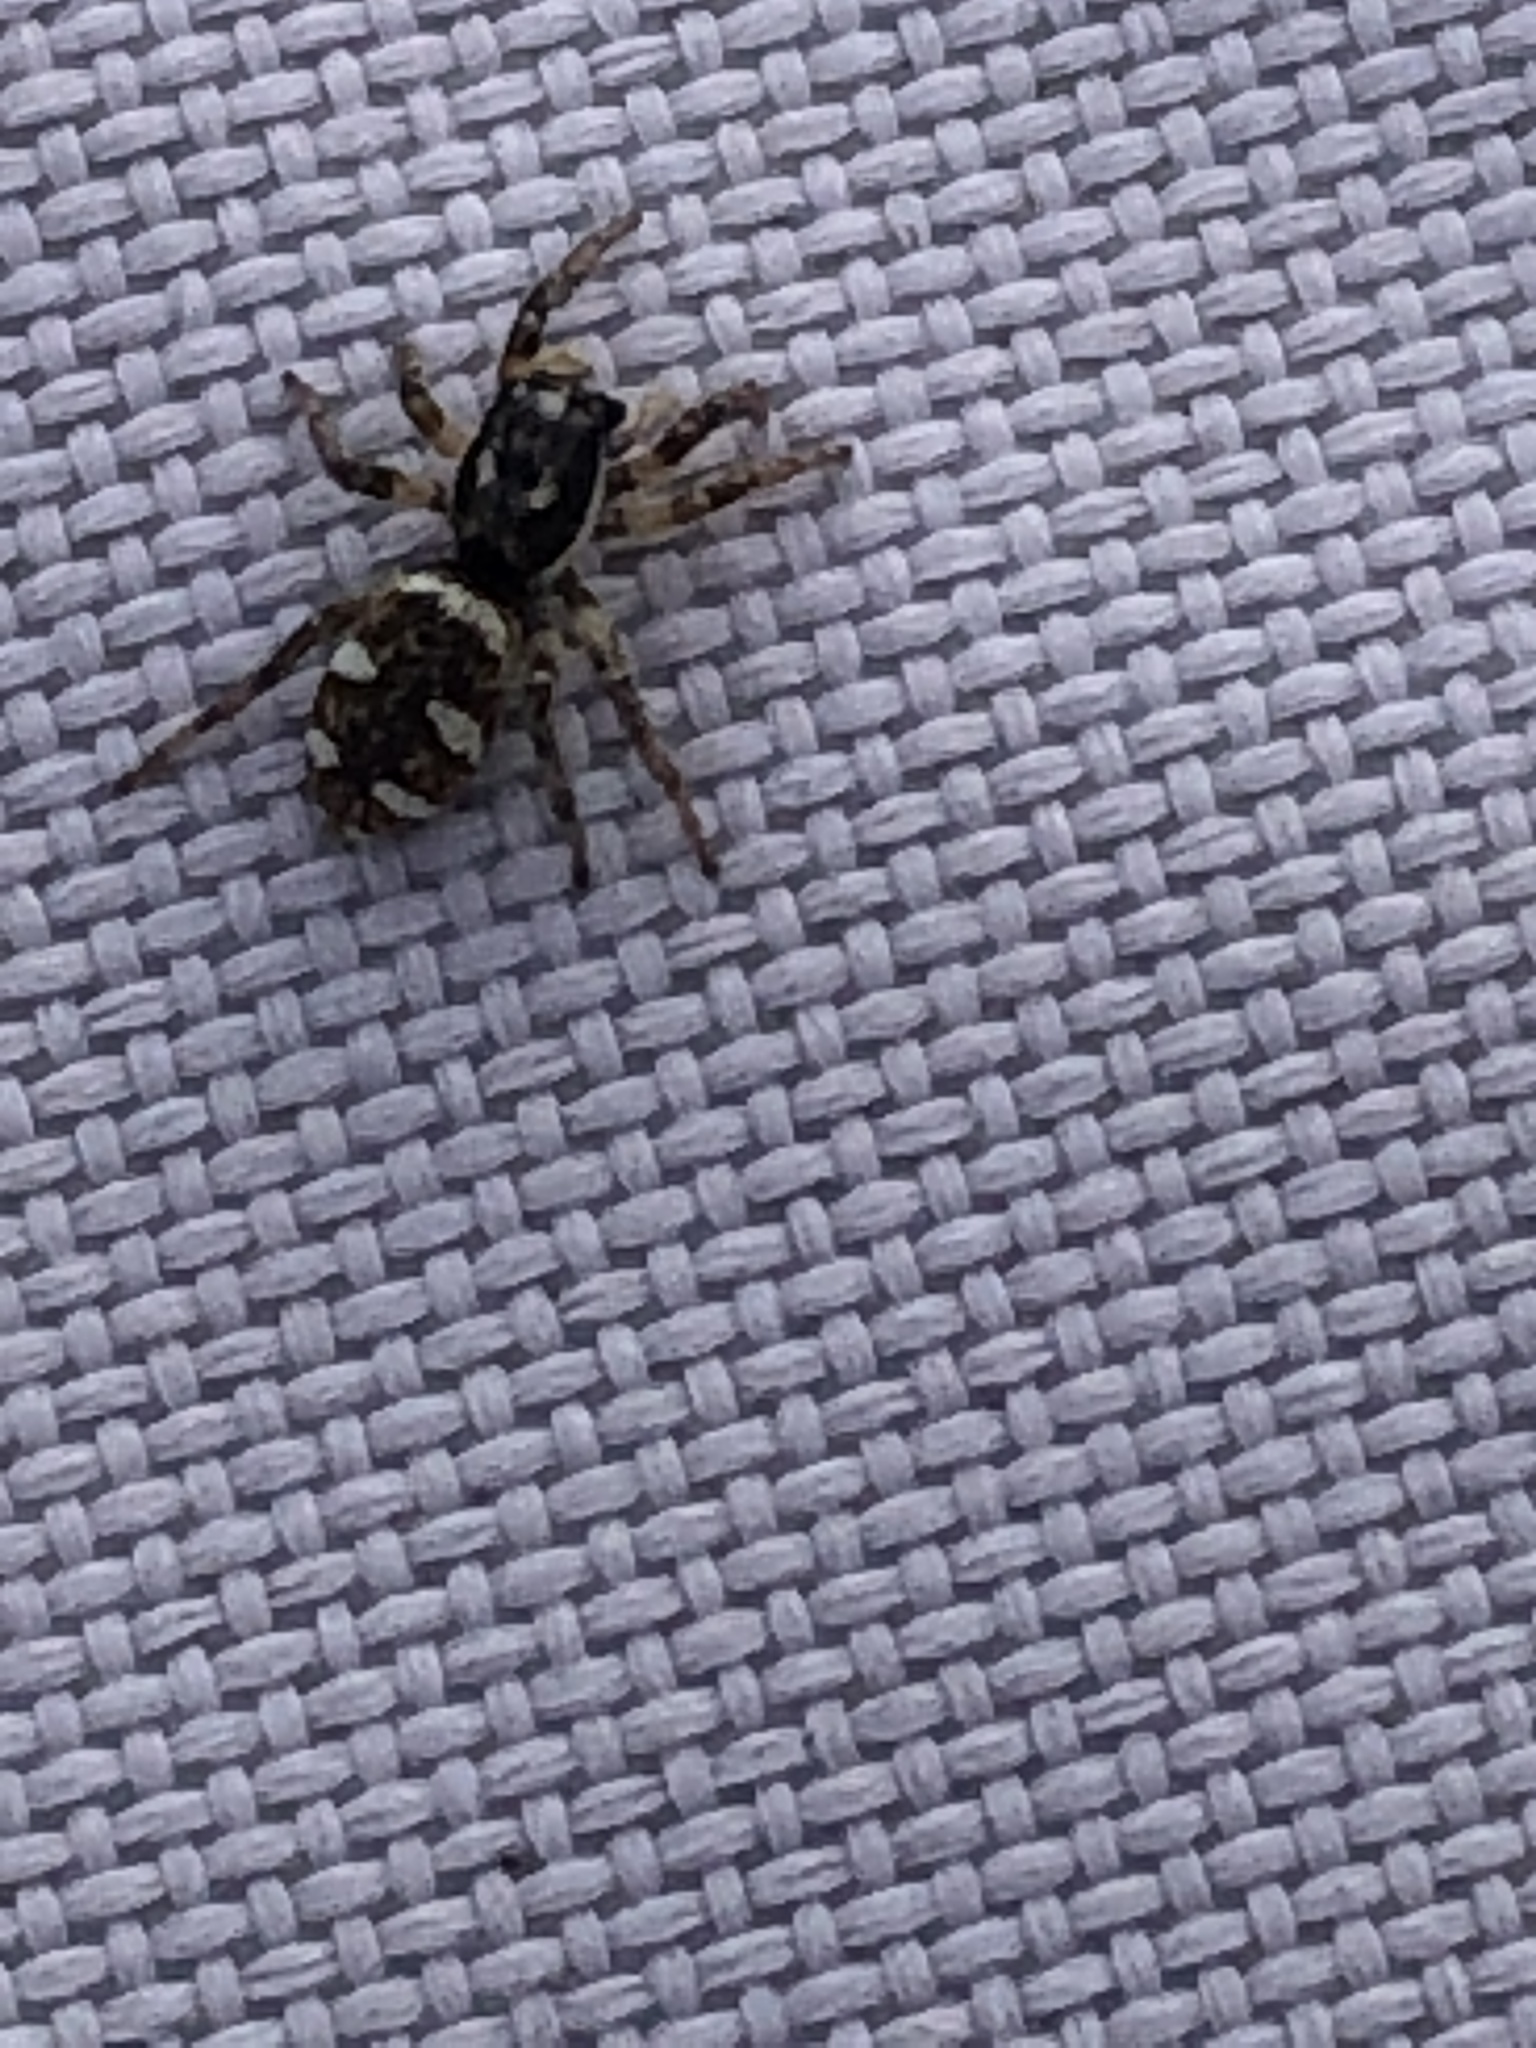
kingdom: Animalia
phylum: Arthropoda
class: Arachnida
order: Araneae
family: Salticidae
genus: Salticus
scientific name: Salticus scenicus
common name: Zebra jumper
